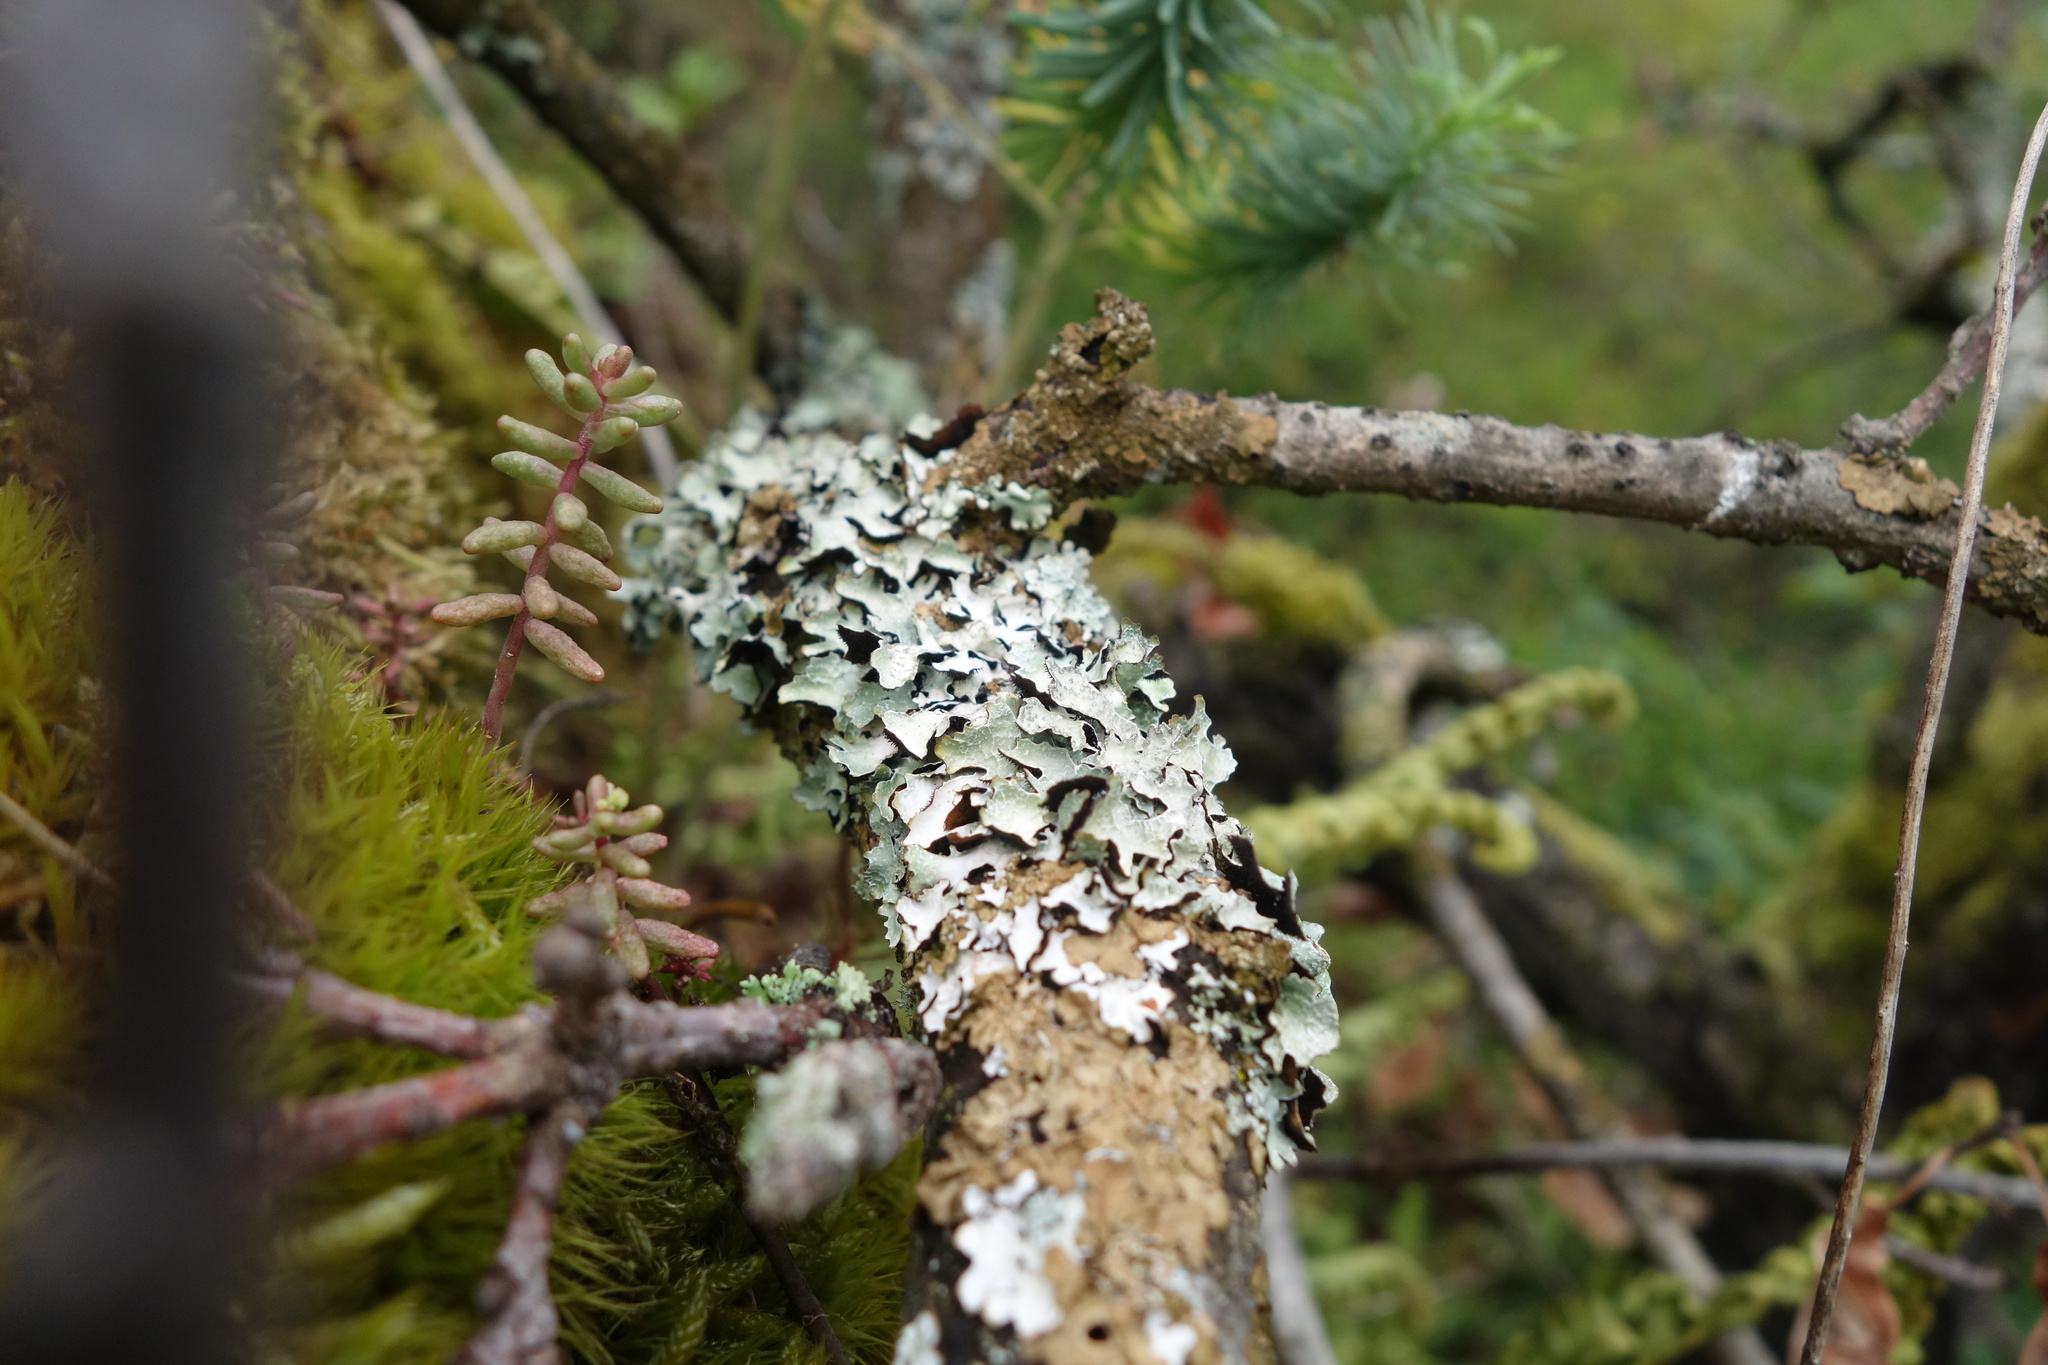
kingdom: Fungi
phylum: Ascomycota
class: Lecanoromycetes
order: Lecanorales
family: Parmeliaceae
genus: Parmelia
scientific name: Parmelia sulcata
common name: Netted shield lichen
